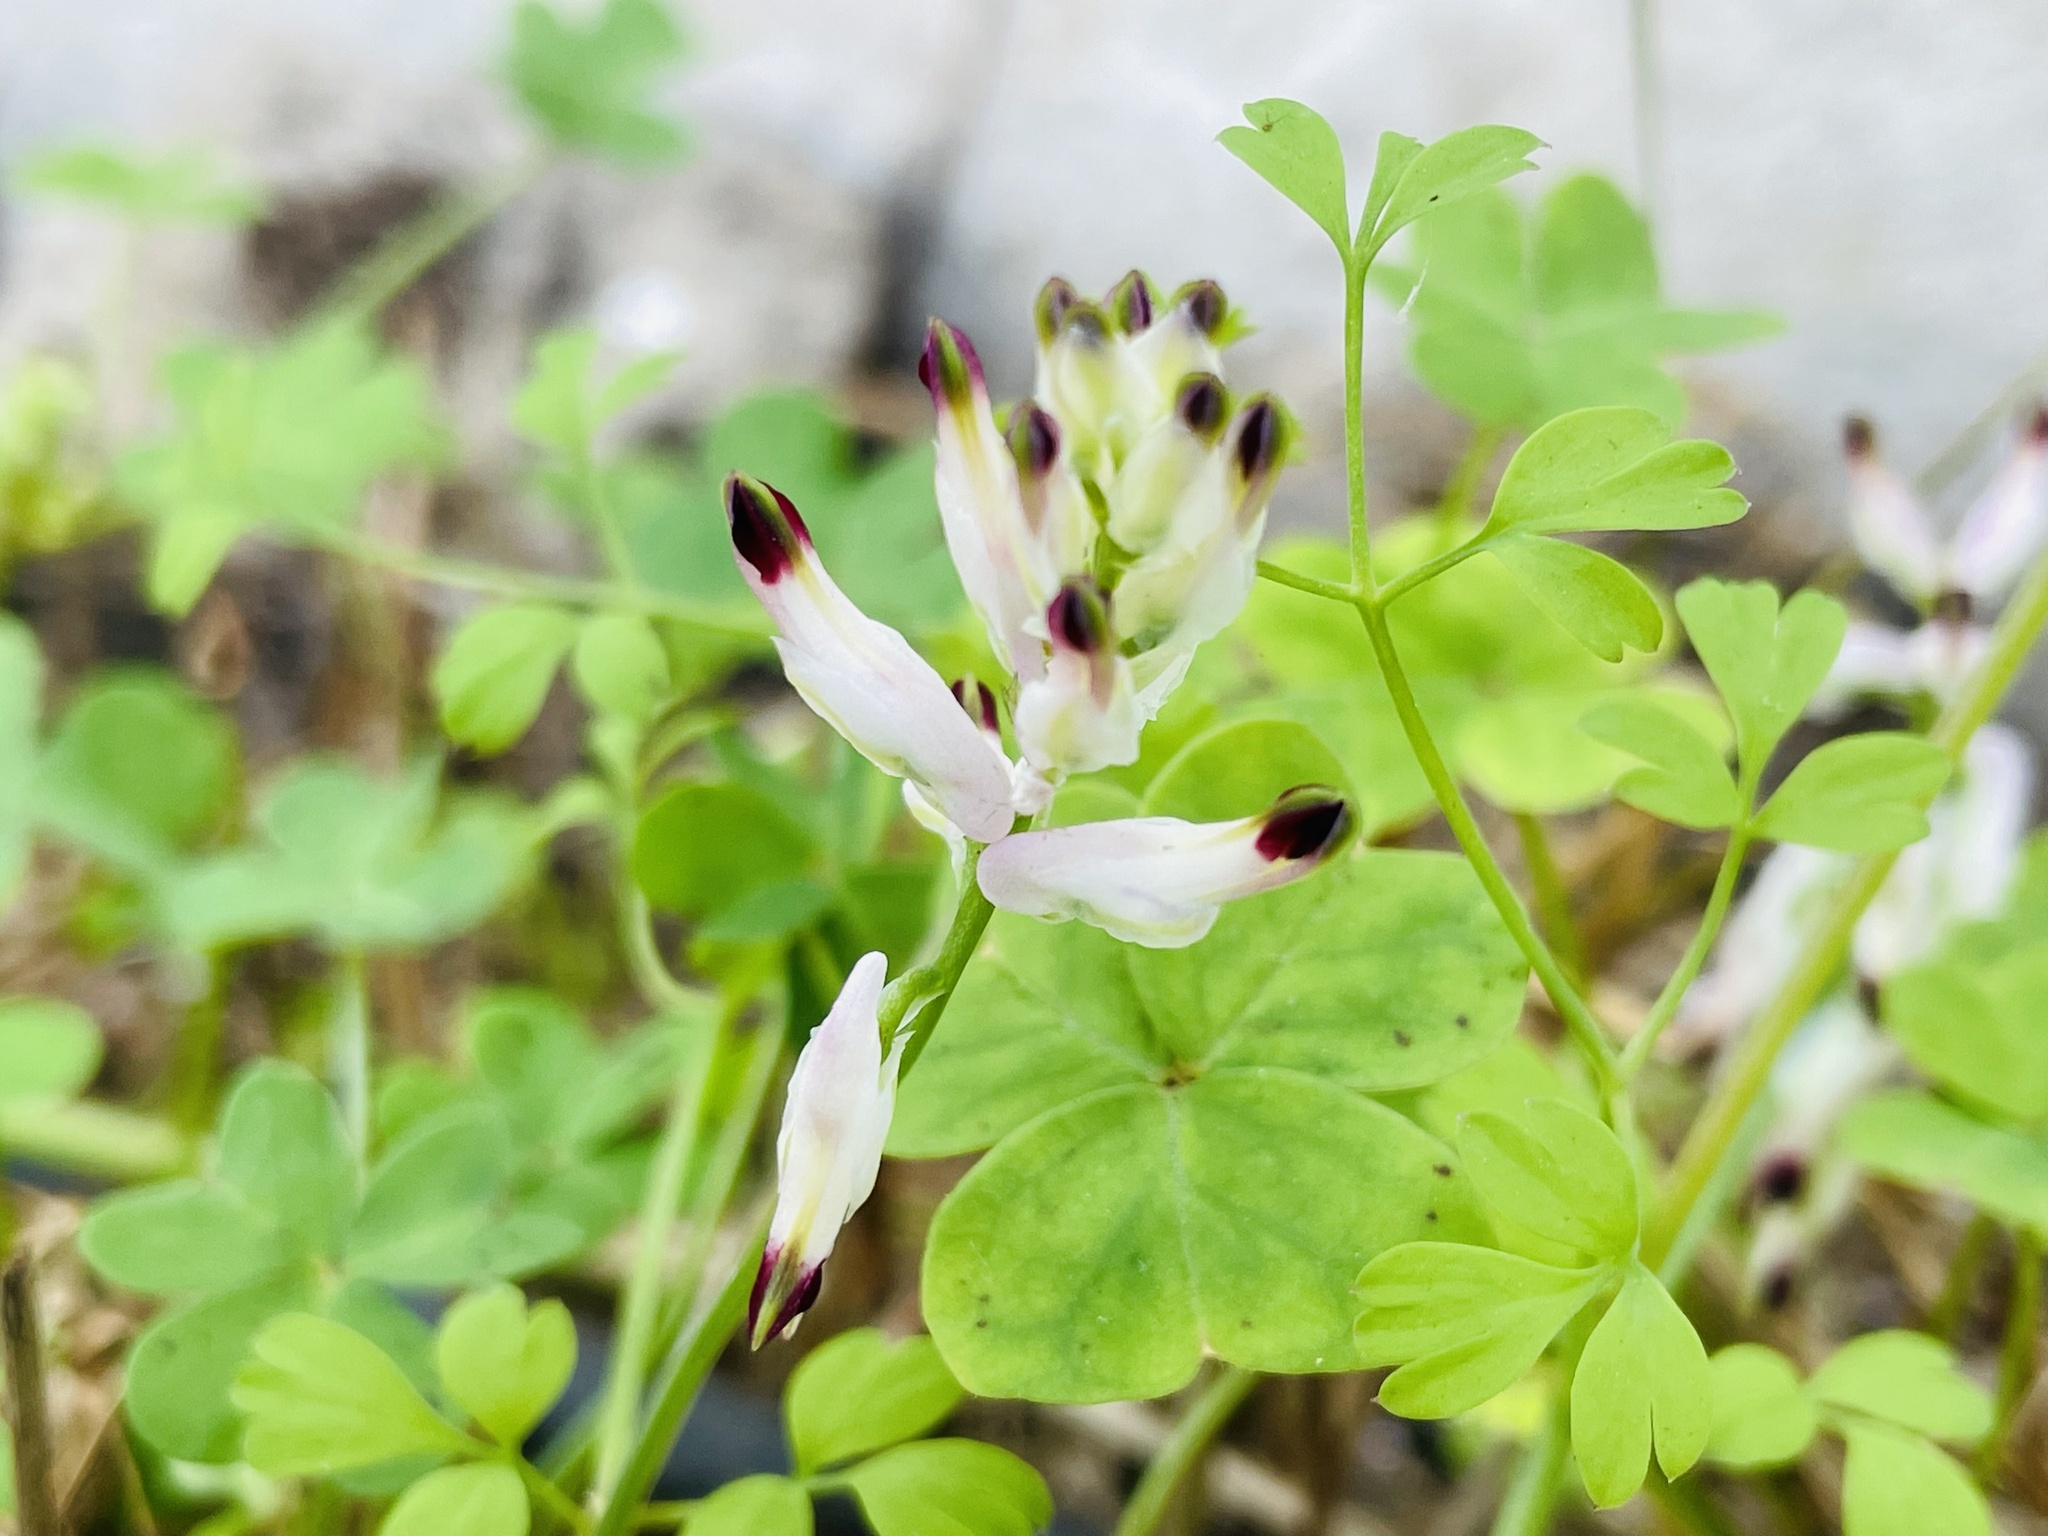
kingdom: Plantae
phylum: Tracheophyta
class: Magnoliopsida
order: Ranunculales
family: Papaveraceae
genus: Fumaria
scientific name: Fumaria capreolata
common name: White ramping-fumitory
